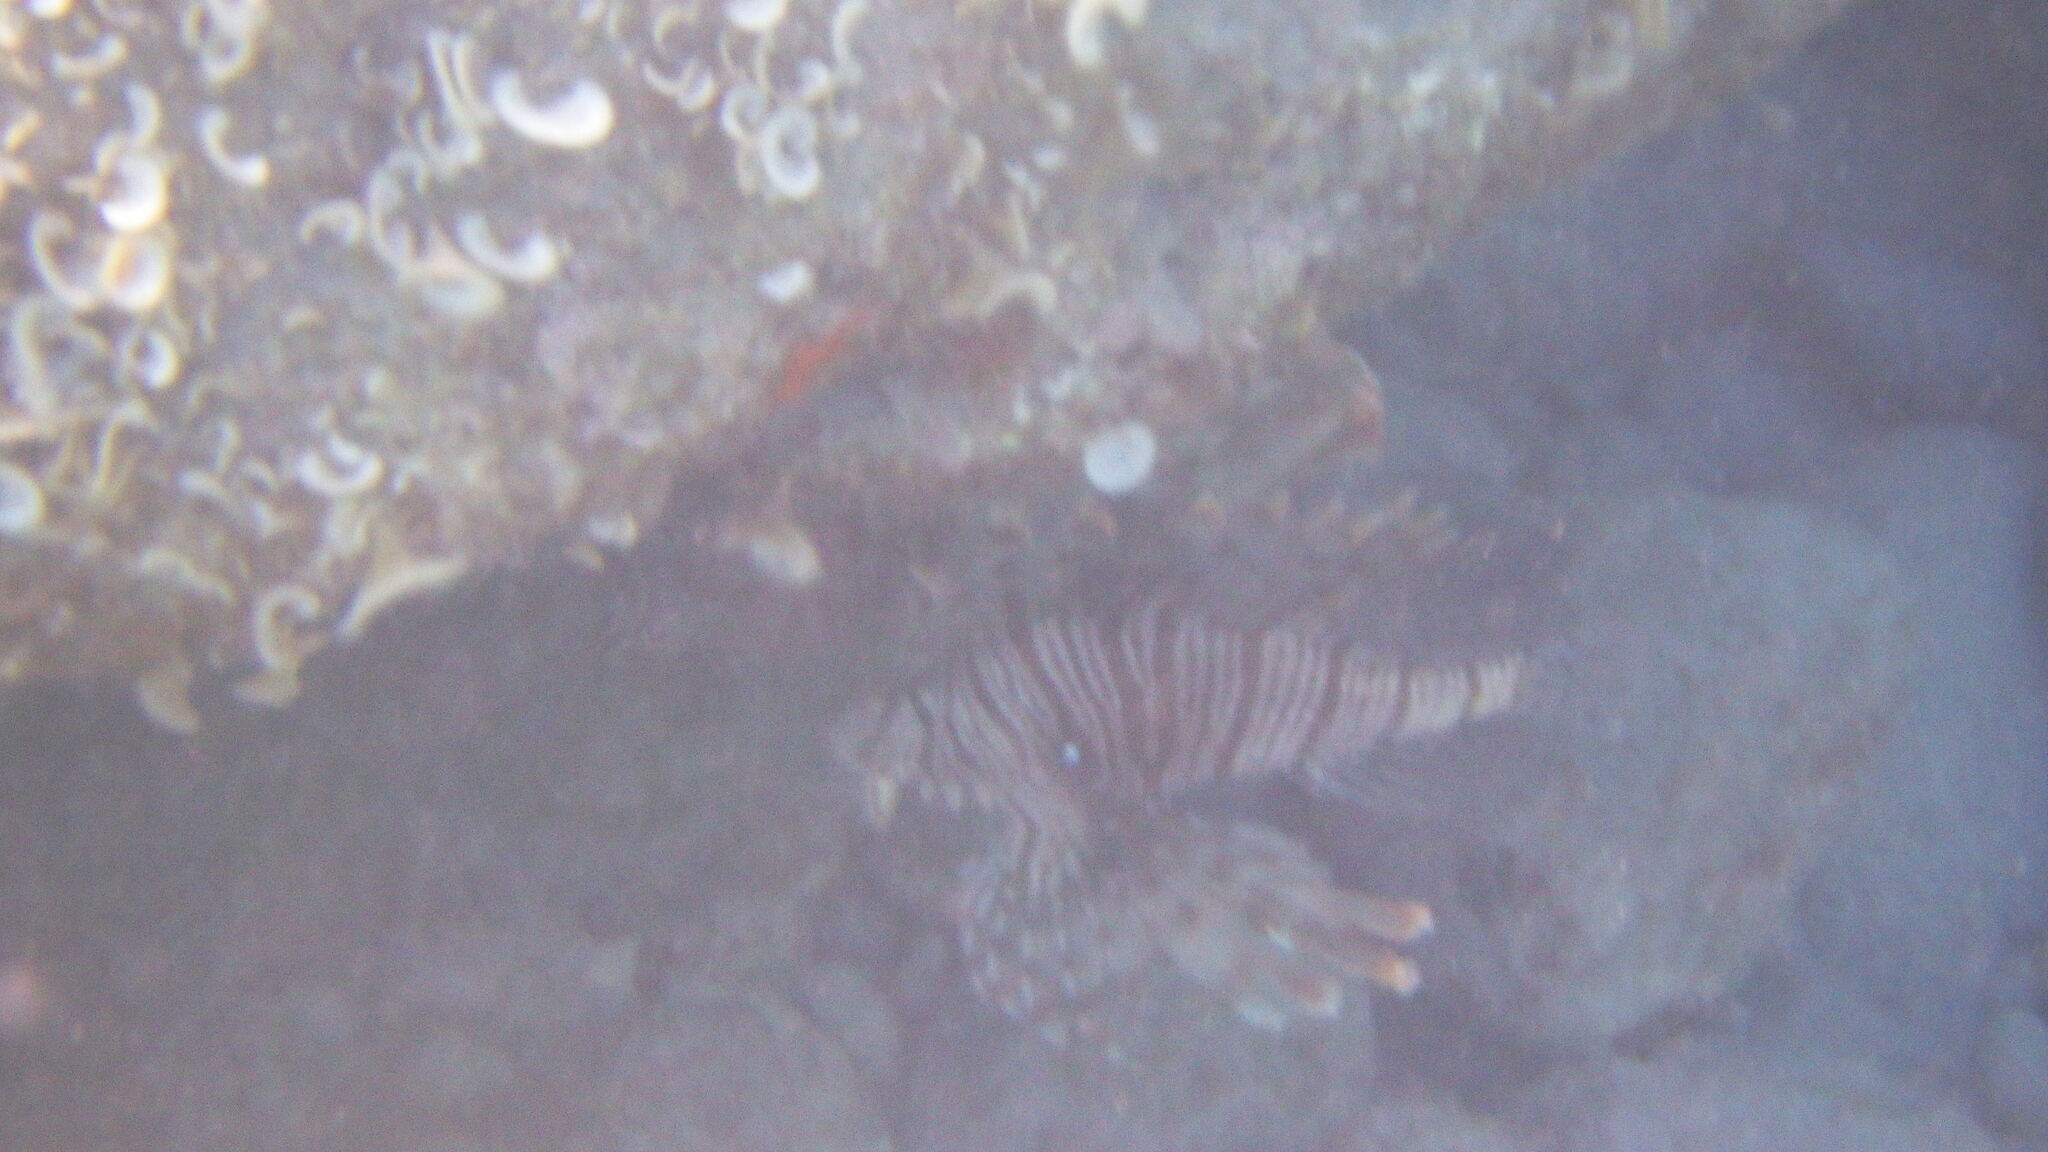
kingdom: Animalia
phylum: Chordata
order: Scorpaeniformes
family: Scorpaenidae
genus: Pterois
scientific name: Pterois miles
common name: Devil firefish
